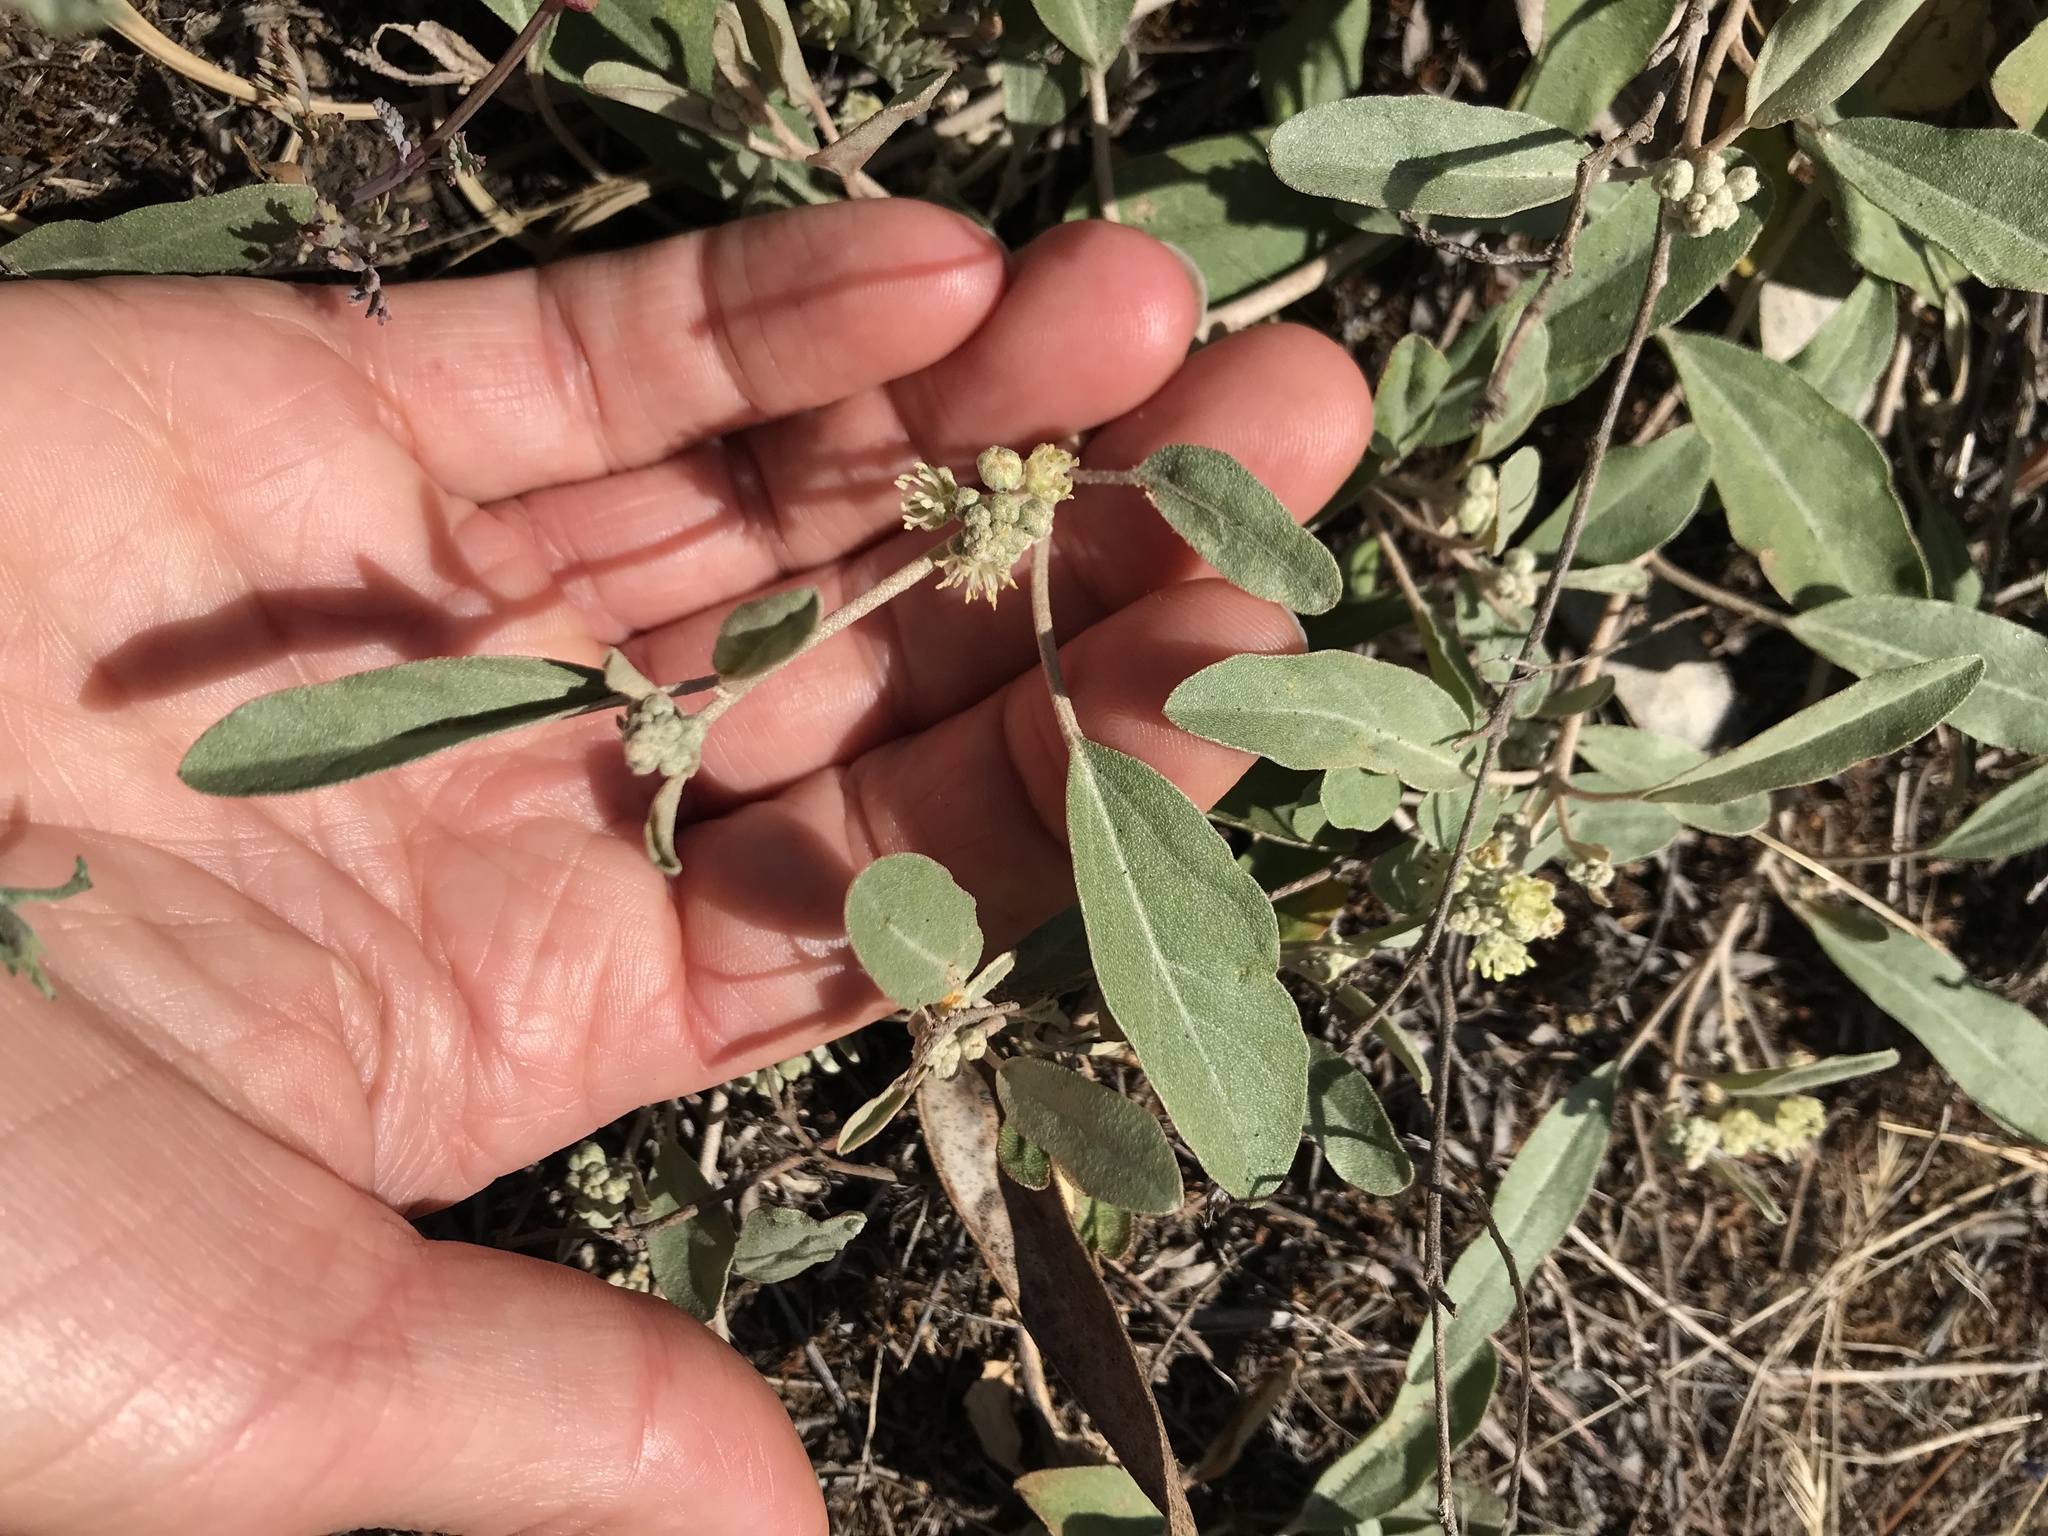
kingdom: Plantae
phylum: Tracheophyta
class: Magnoliopsida
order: Malpighiales
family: Euphorbiaceae
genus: Croton
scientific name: Croton californicus
